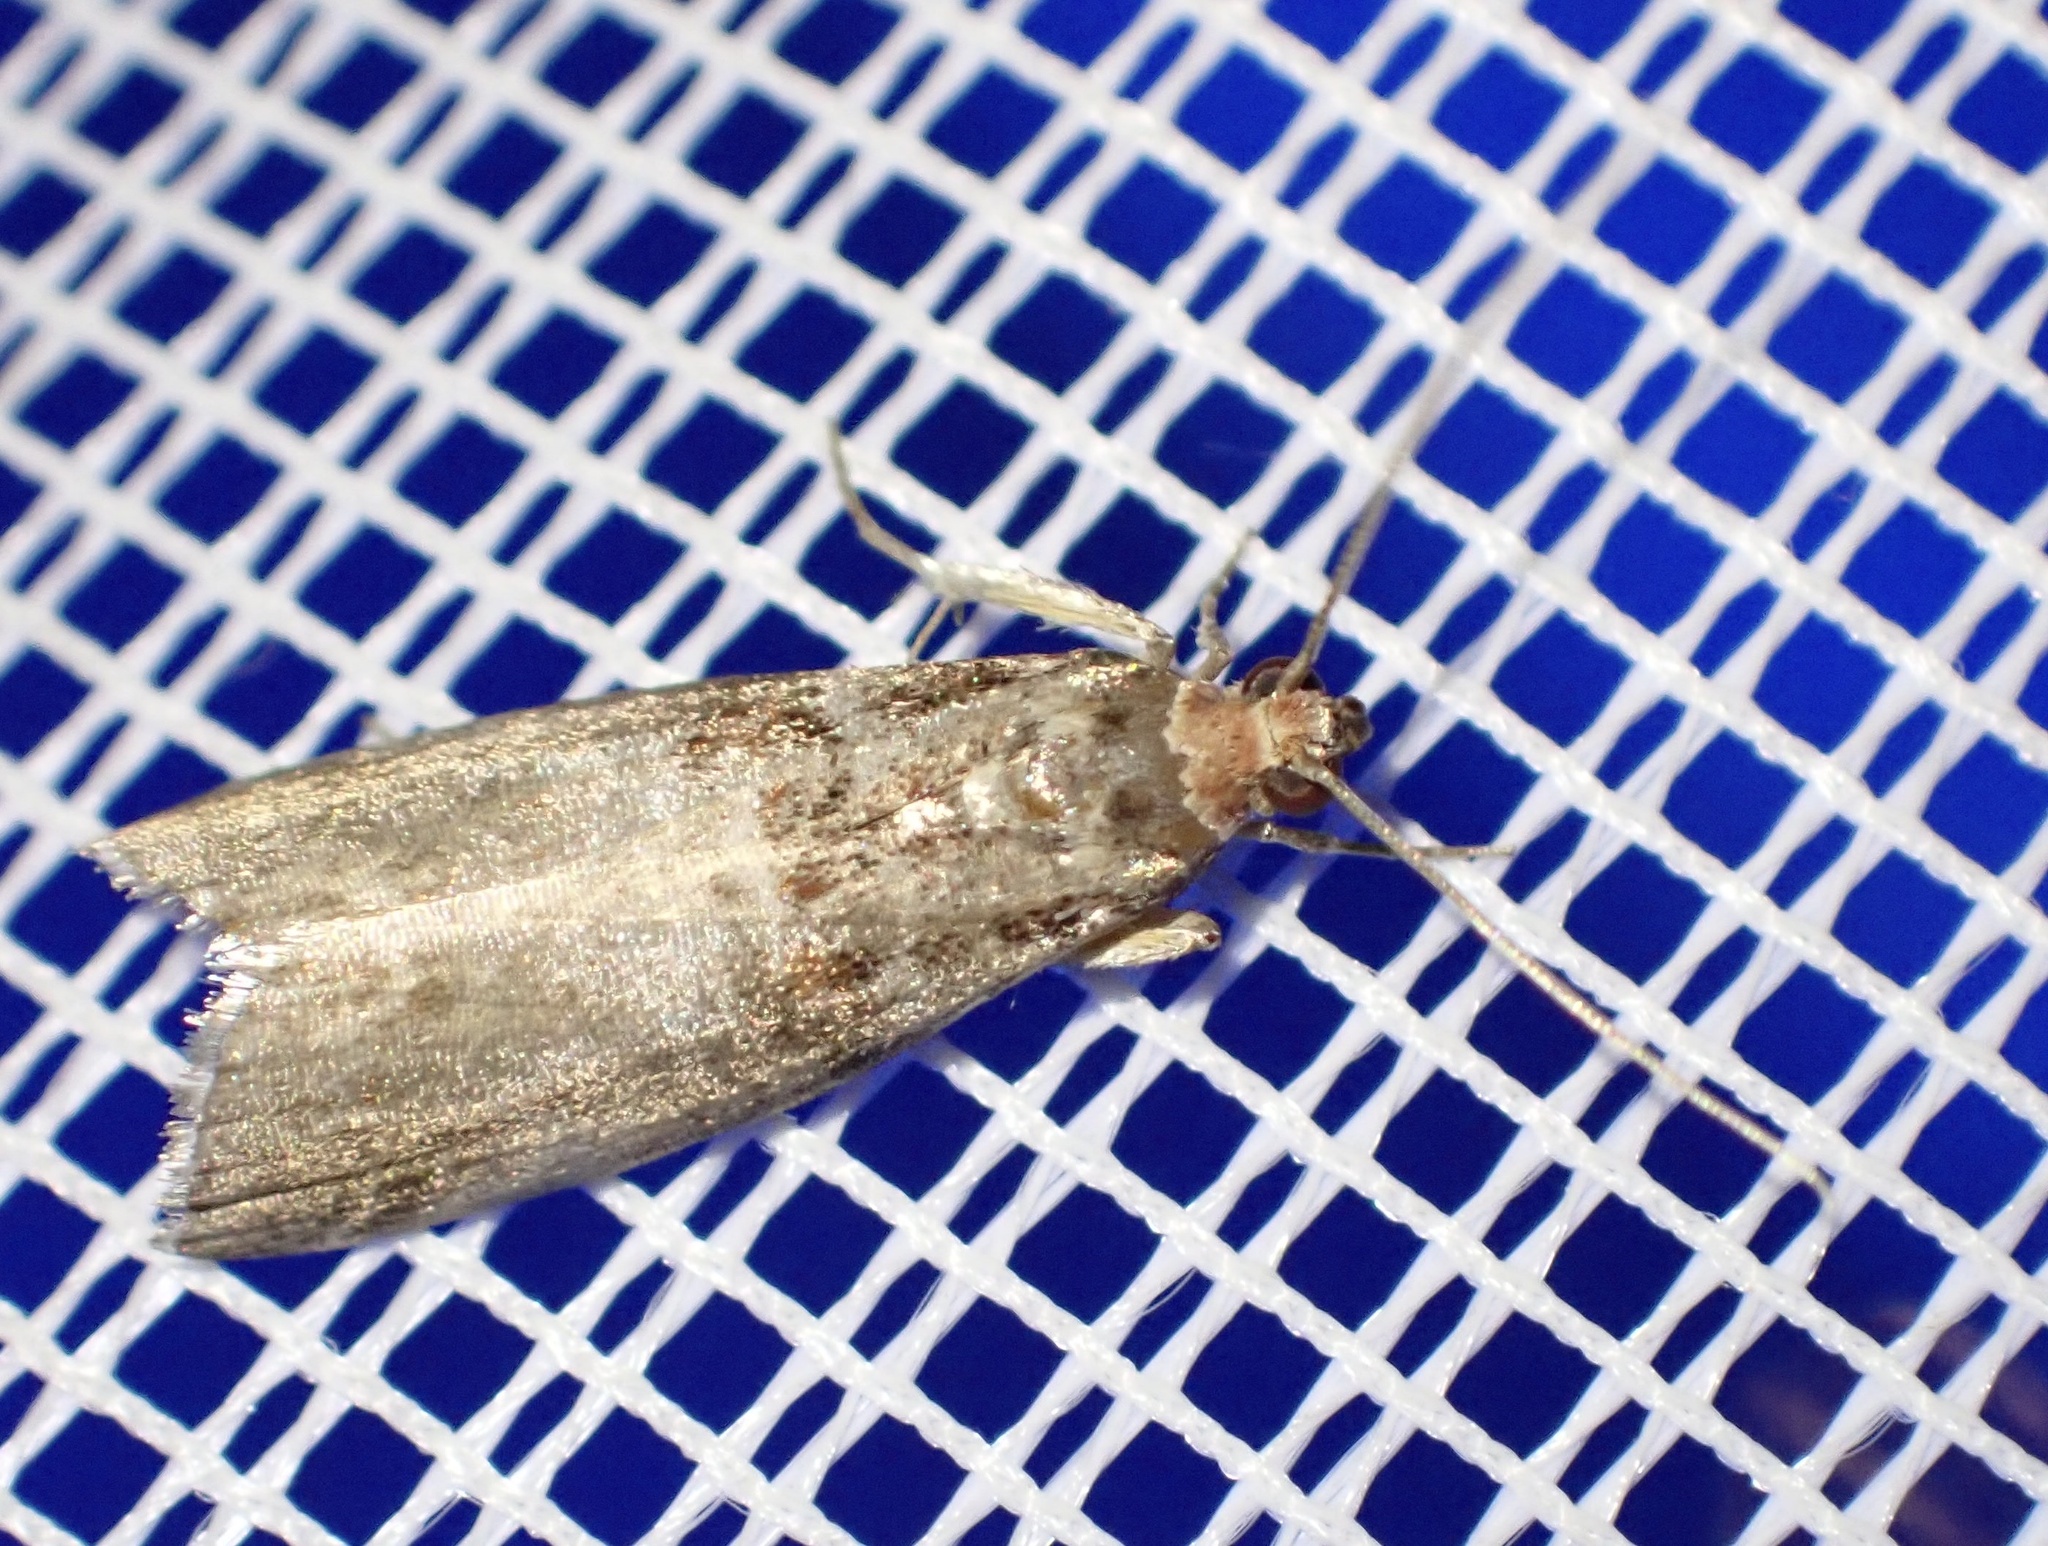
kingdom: Animalia
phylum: Arthropoda
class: Insecta
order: Lepidoptera
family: Pyralidae
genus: Acrobasis
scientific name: Acrobasis advenella
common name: Grey knot-horn
